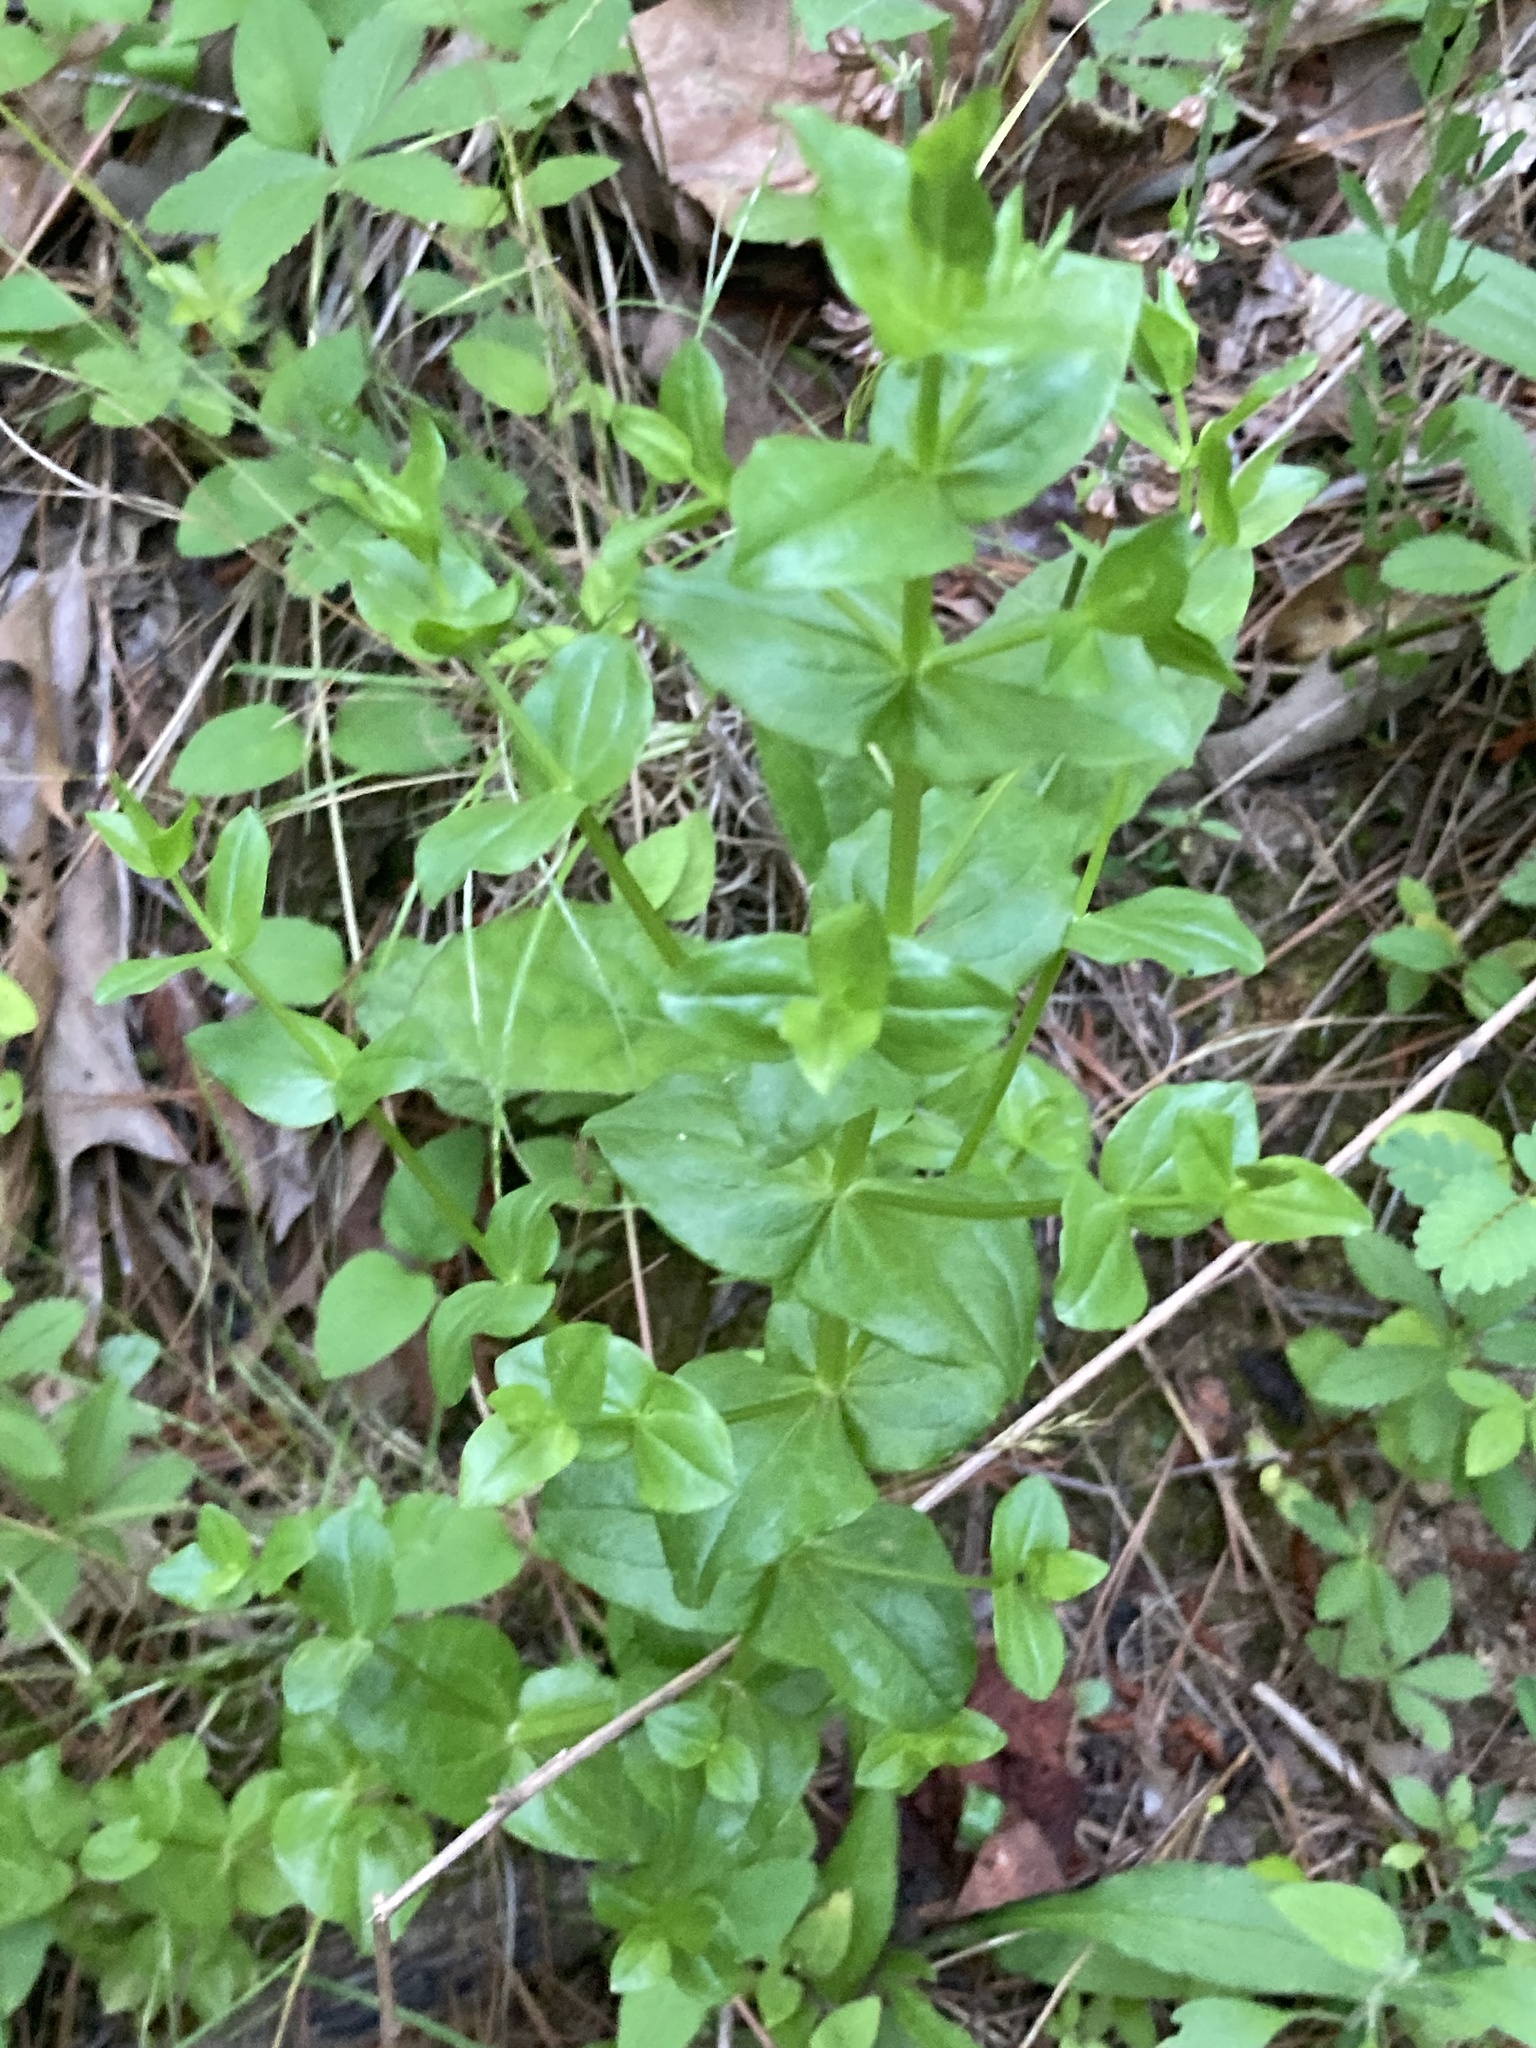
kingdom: Plantae
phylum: Tracheophyta
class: Magnoliopsida
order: Gentianales
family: Gentianaceae
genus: Sabatia
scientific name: Sabatia angularis
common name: Rose-pink
